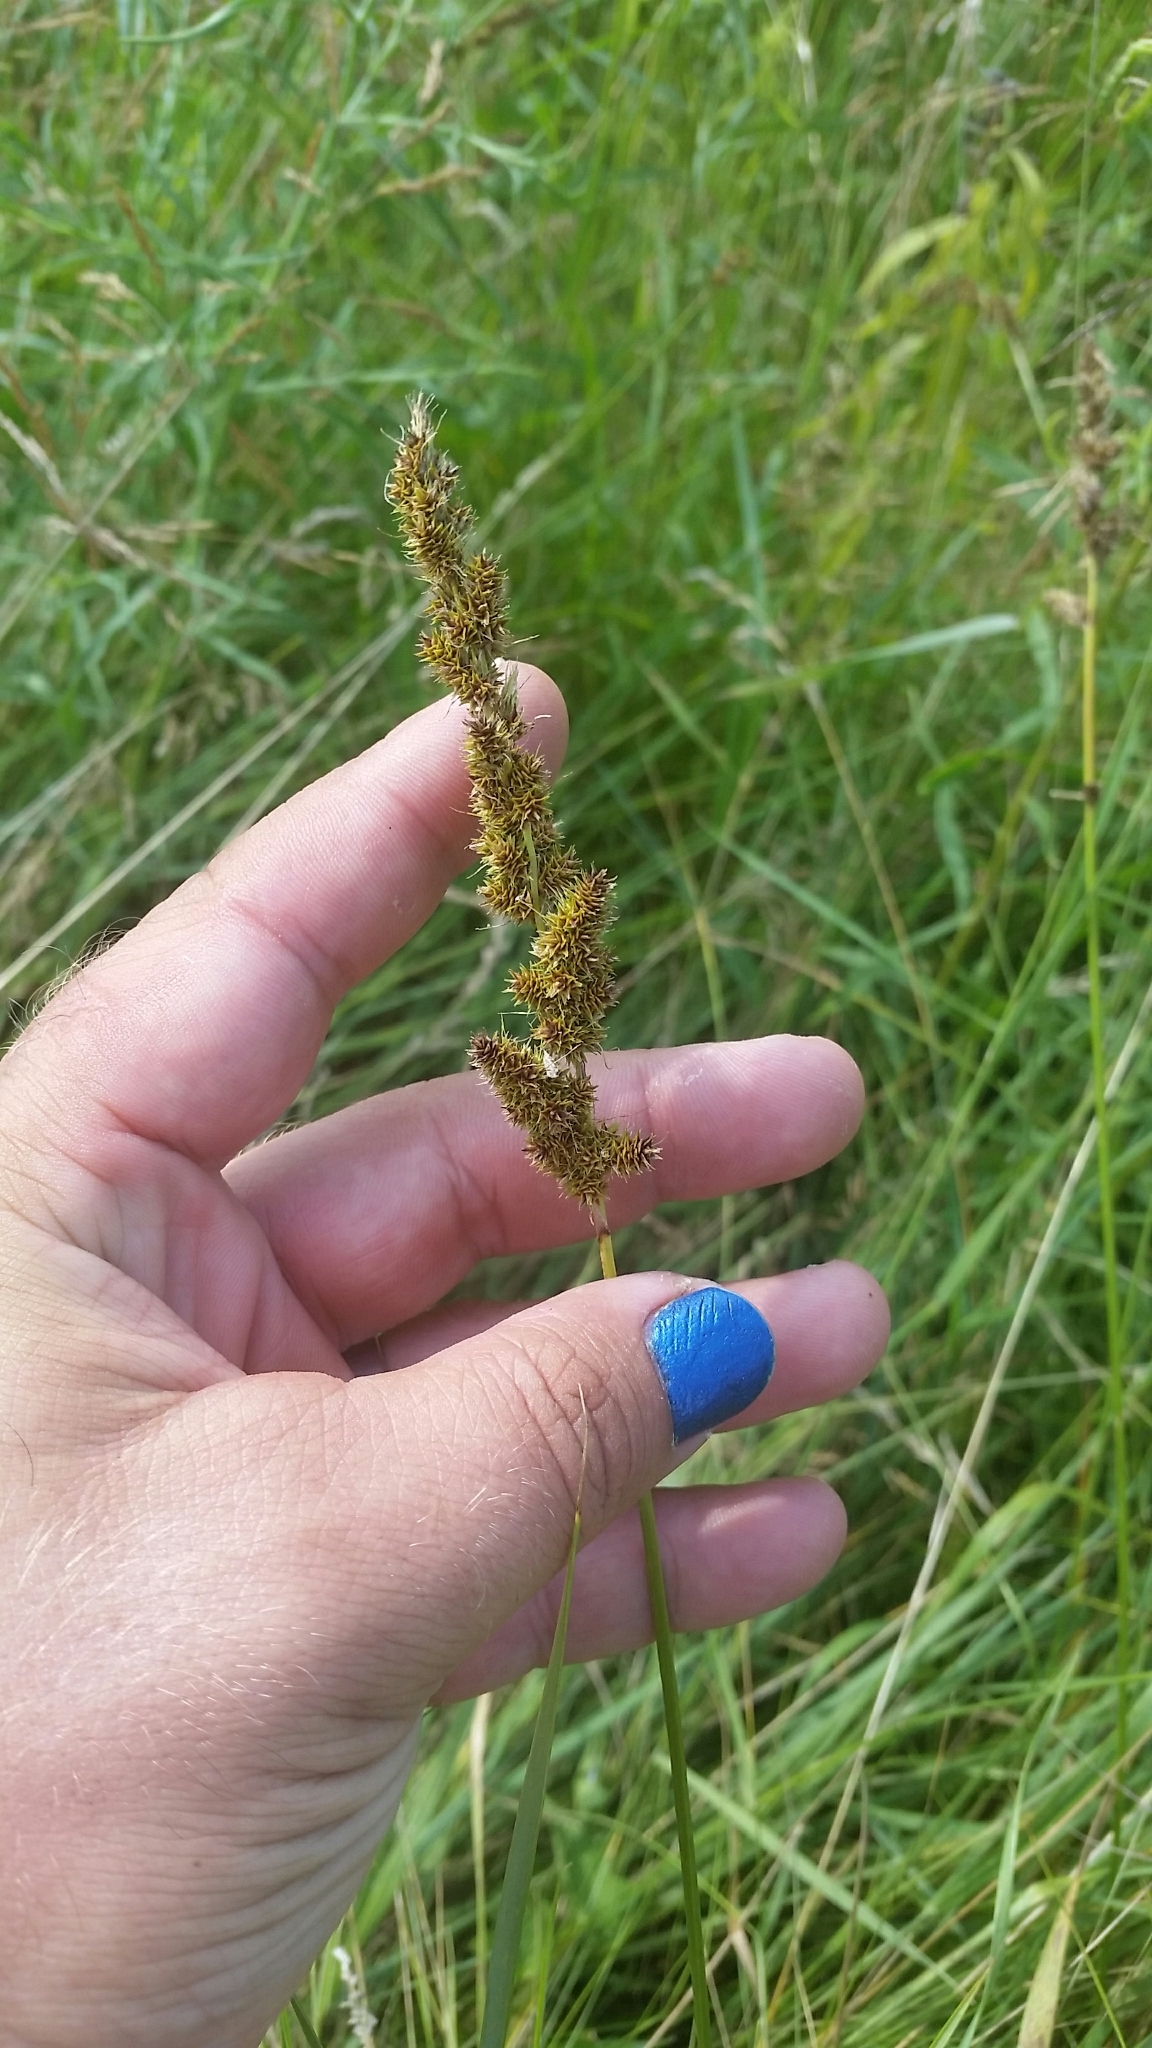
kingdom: Plantae
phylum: Tracheophyta
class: Liliopsida
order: Poales
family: Cyperaceae
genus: Carex
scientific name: Carex annectens
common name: Large fox sedge
